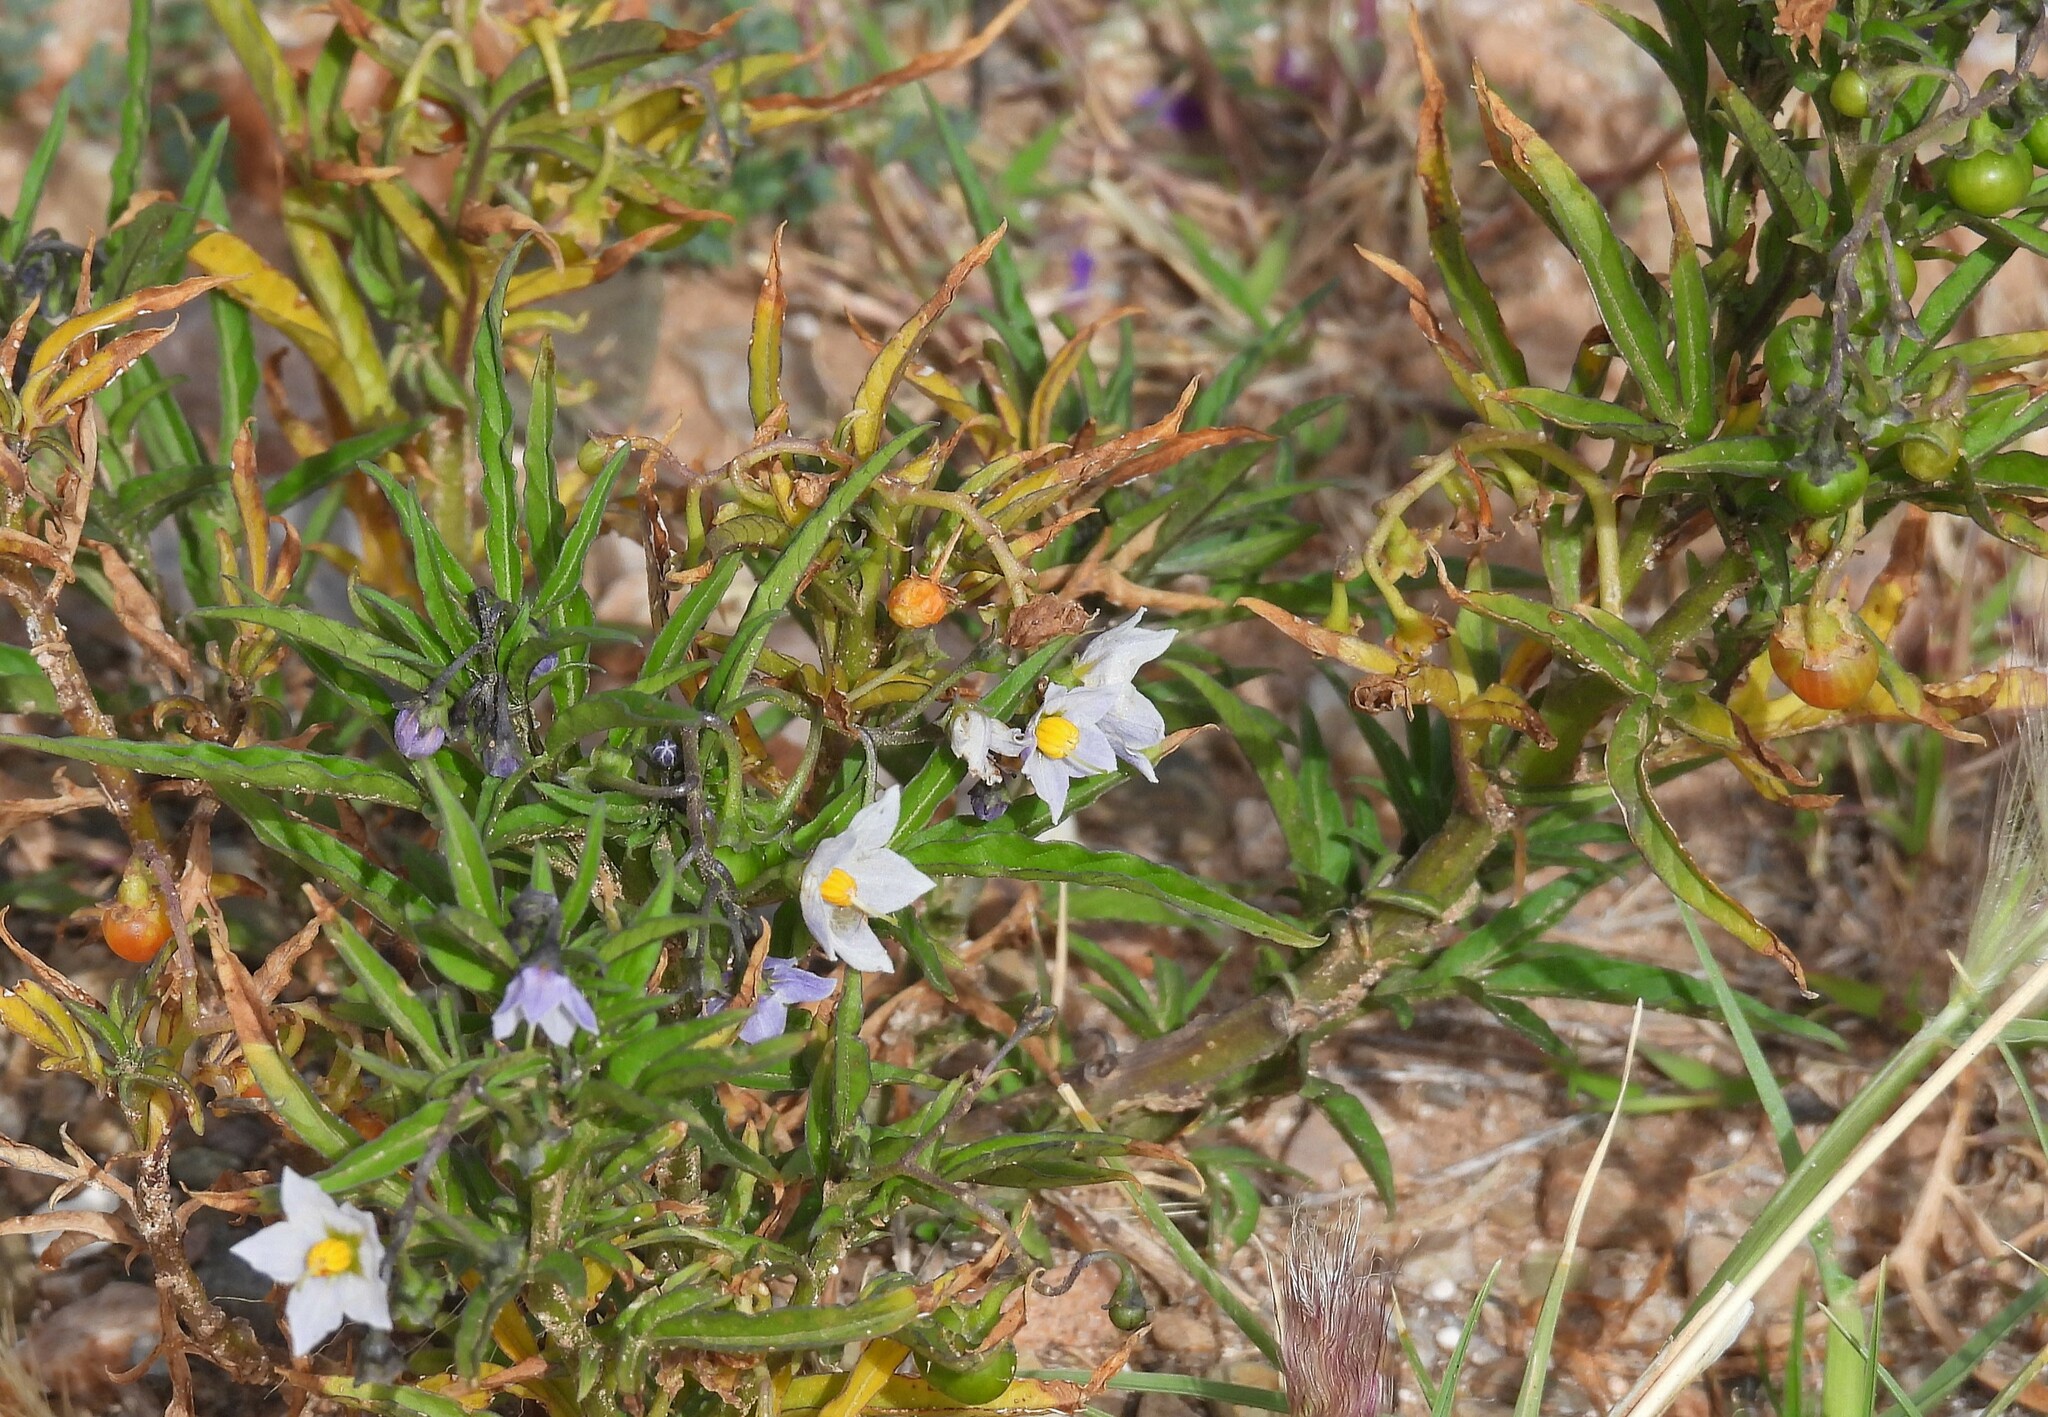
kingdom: Plantae
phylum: Tracheophyta
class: Magnoliopsida
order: Solanales
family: Solanaceae
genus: Solanum
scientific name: Solanum tripartitum
